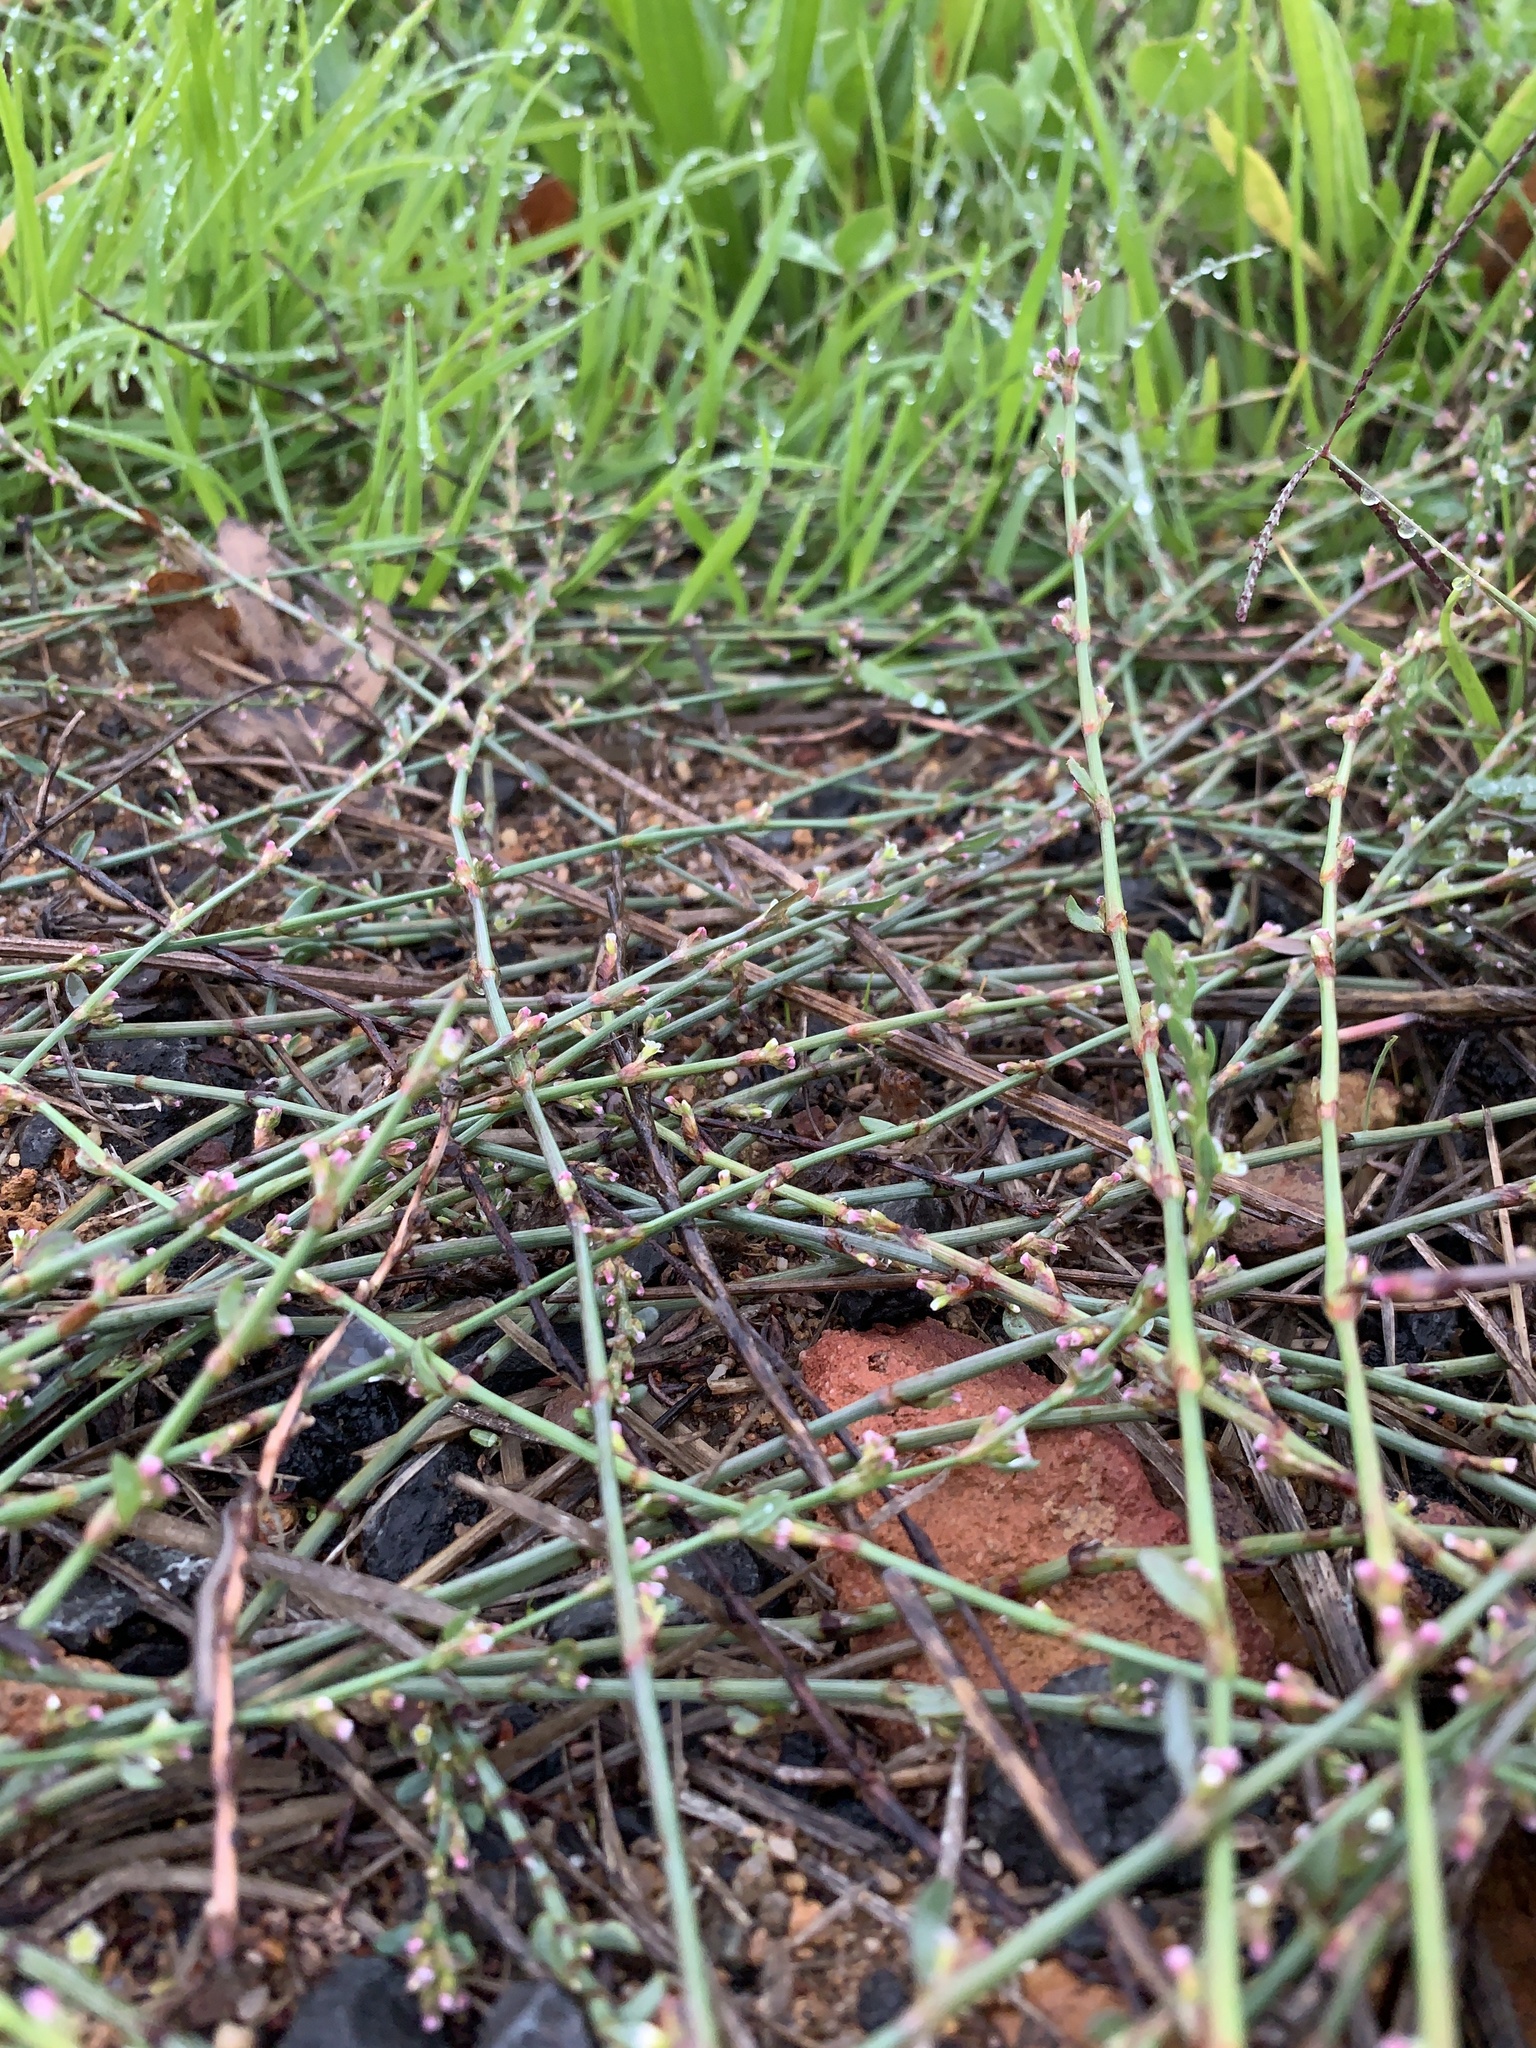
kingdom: Plantae
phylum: Tracheophyta
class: Magnoliopsida
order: Caryophyllales
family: Polygonaceae
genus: Polygonum
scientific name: Polygonum aviculare
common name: Prostrate knotweed
